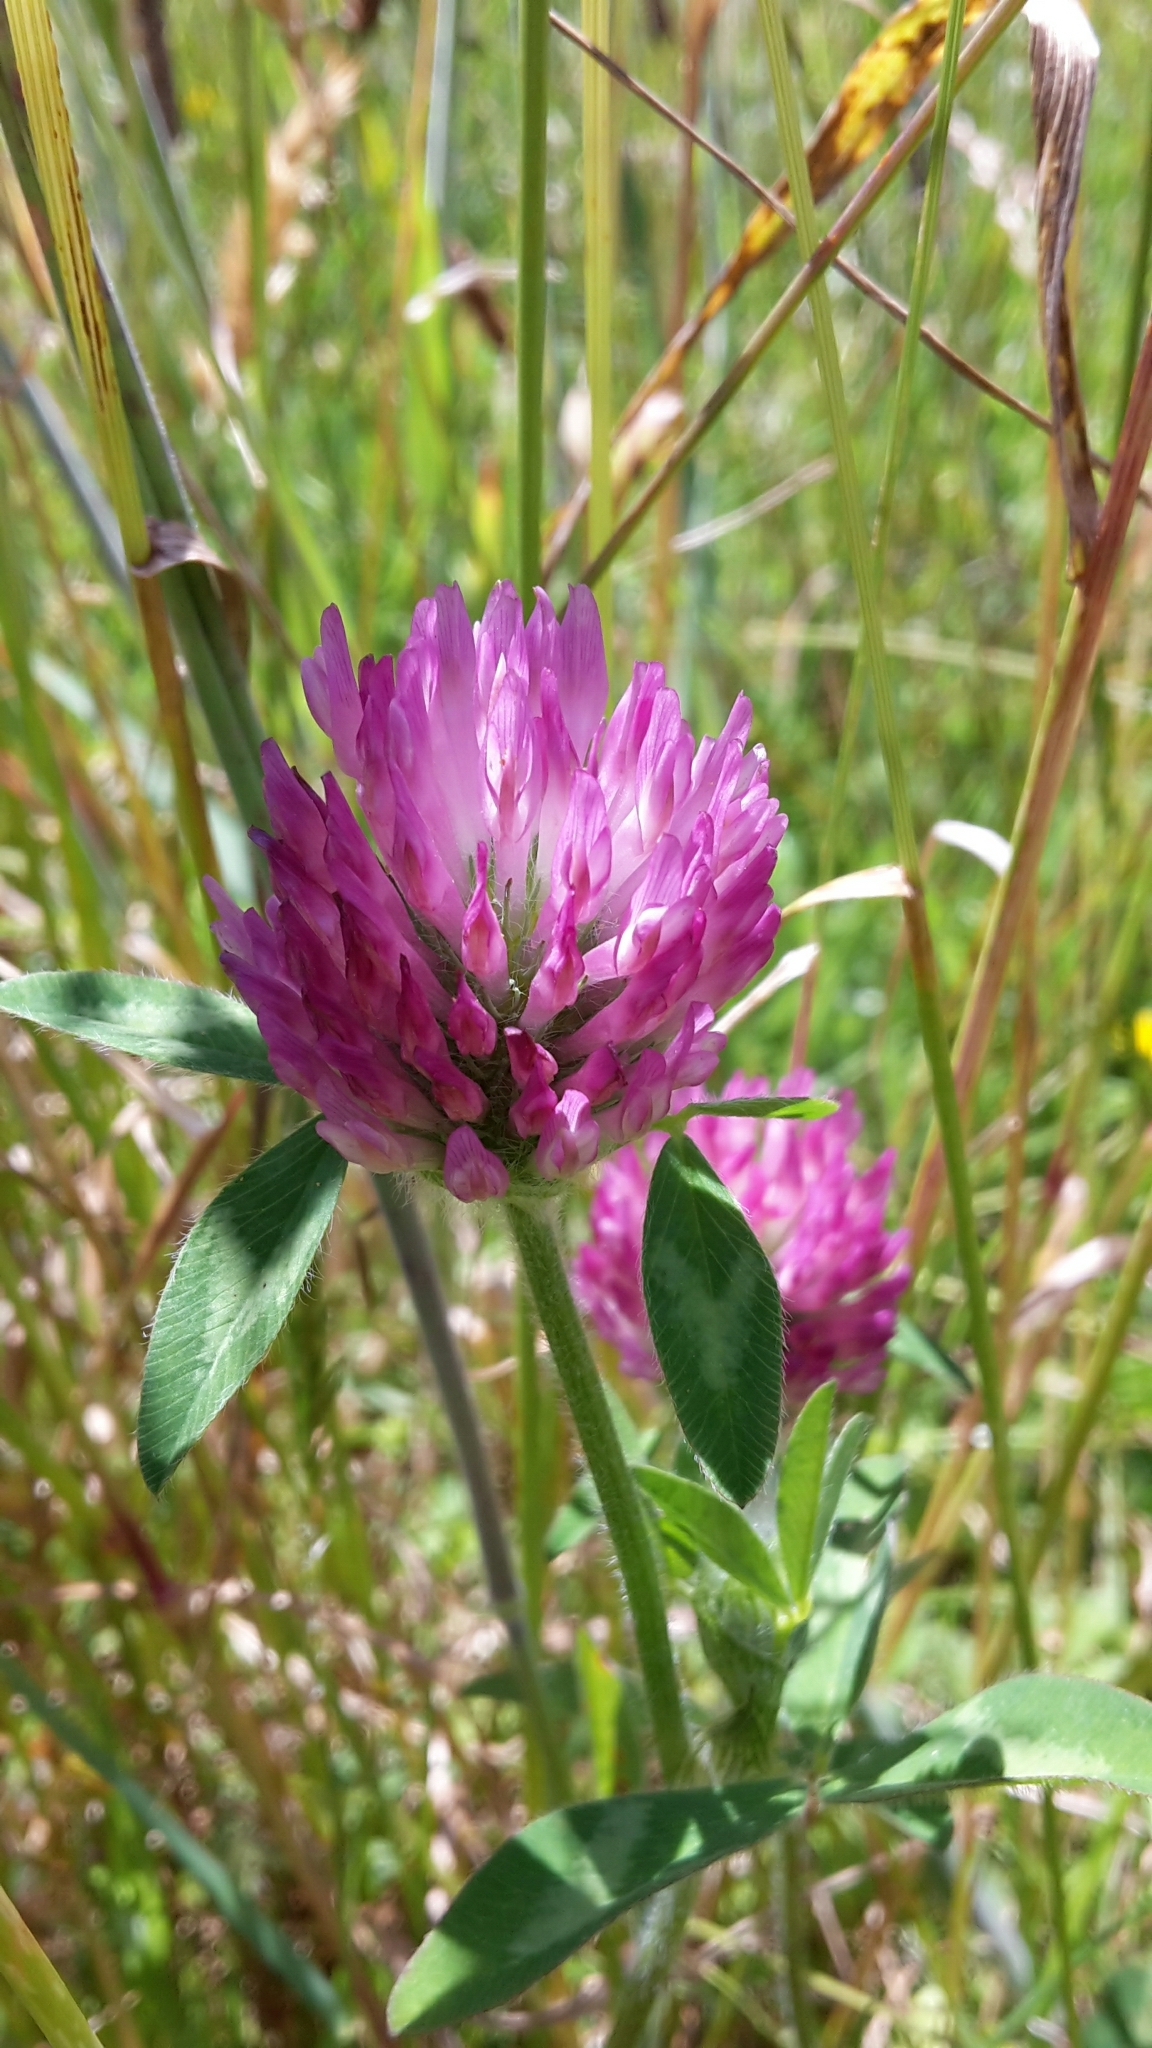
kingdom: Plantae
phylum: Tracheophyta
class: Magnoliopsida
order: Fabales
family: Fabaceae
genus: Trifolium
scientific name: Trifolium pratense
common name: Red clover
